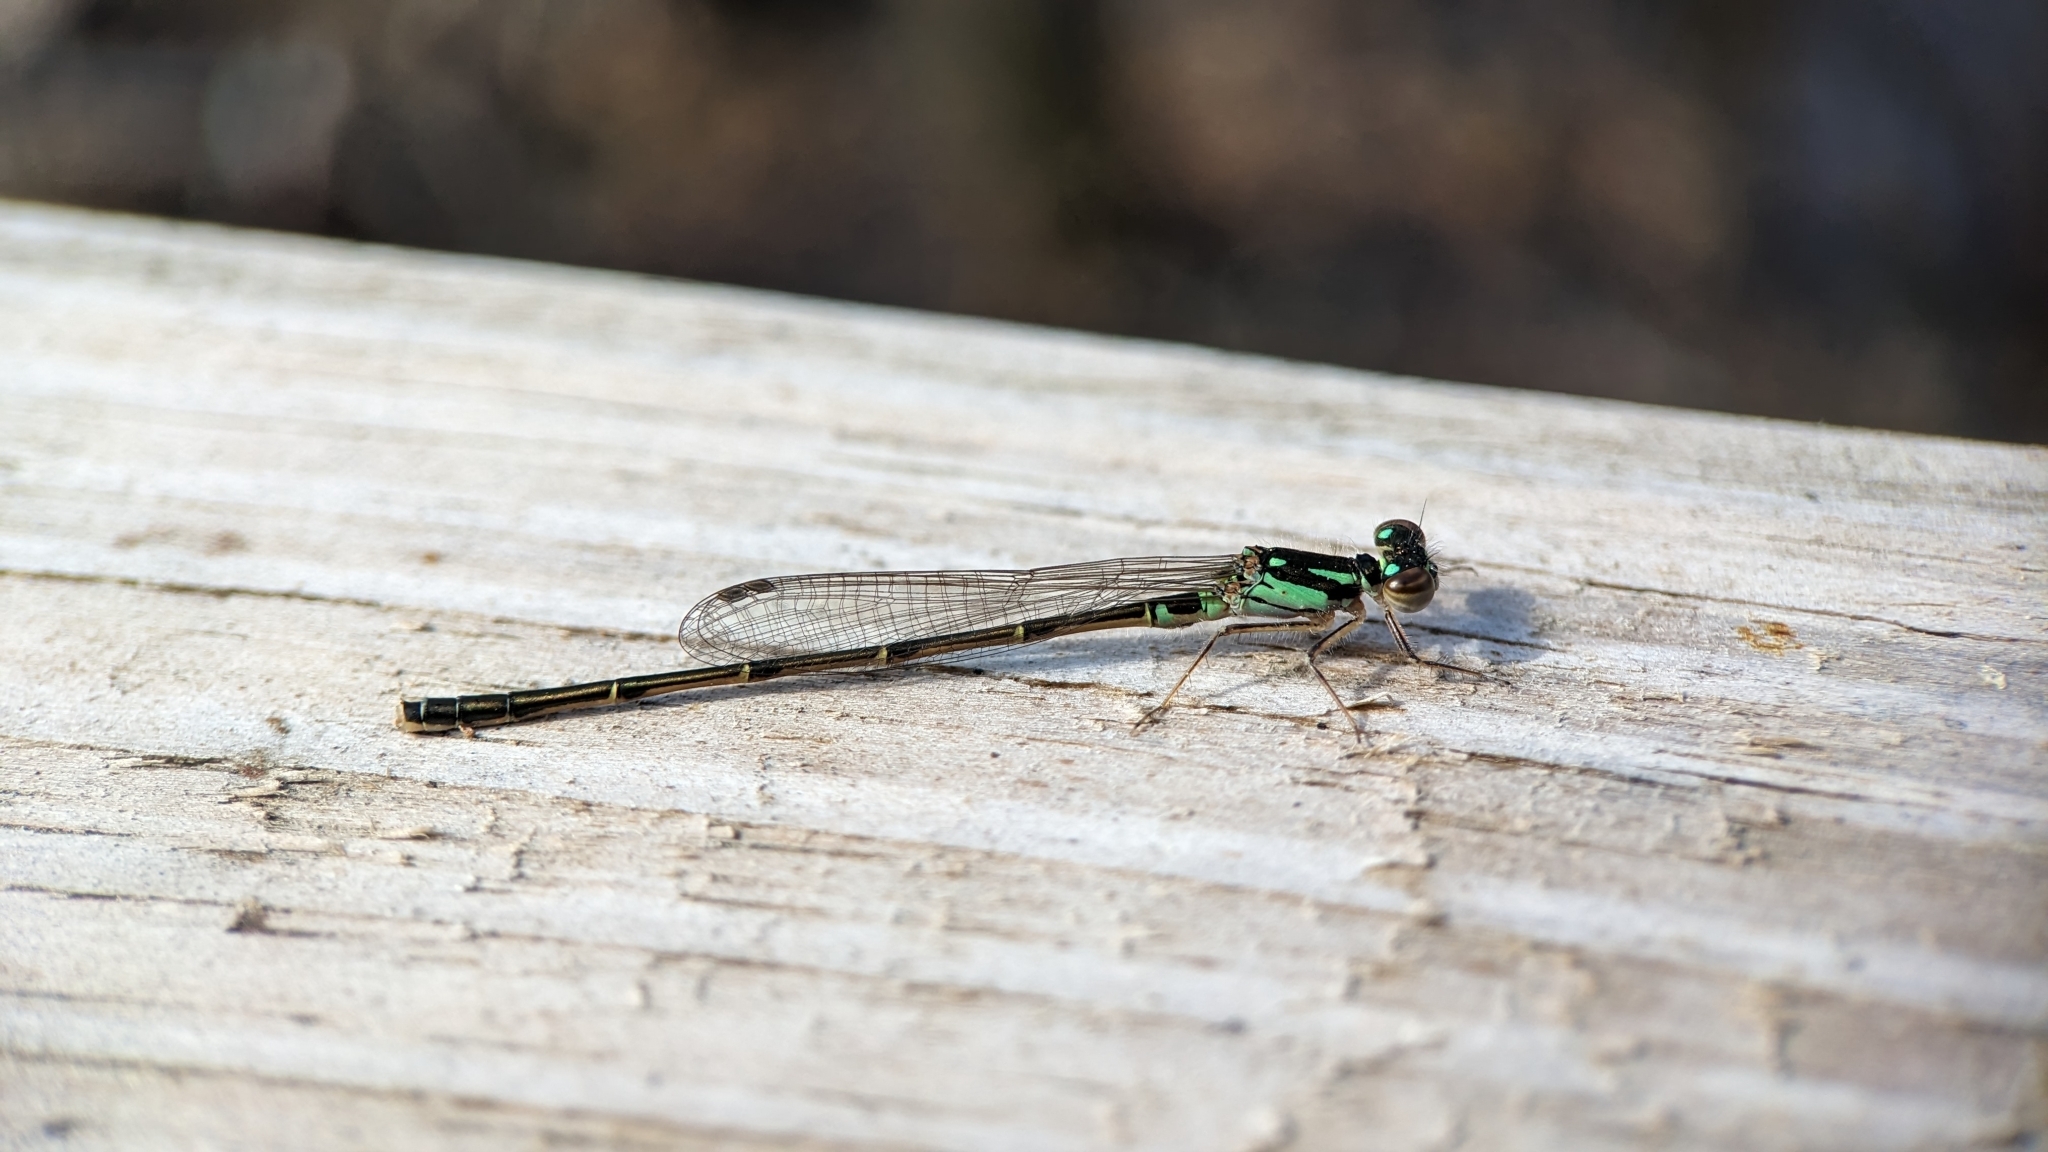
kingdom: Animalia
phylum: Arthropoda
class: Insecta
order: Odonata
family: Coenagrionidae
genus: Ischnura
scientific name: Ischnura posita
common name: Fragile forktail
